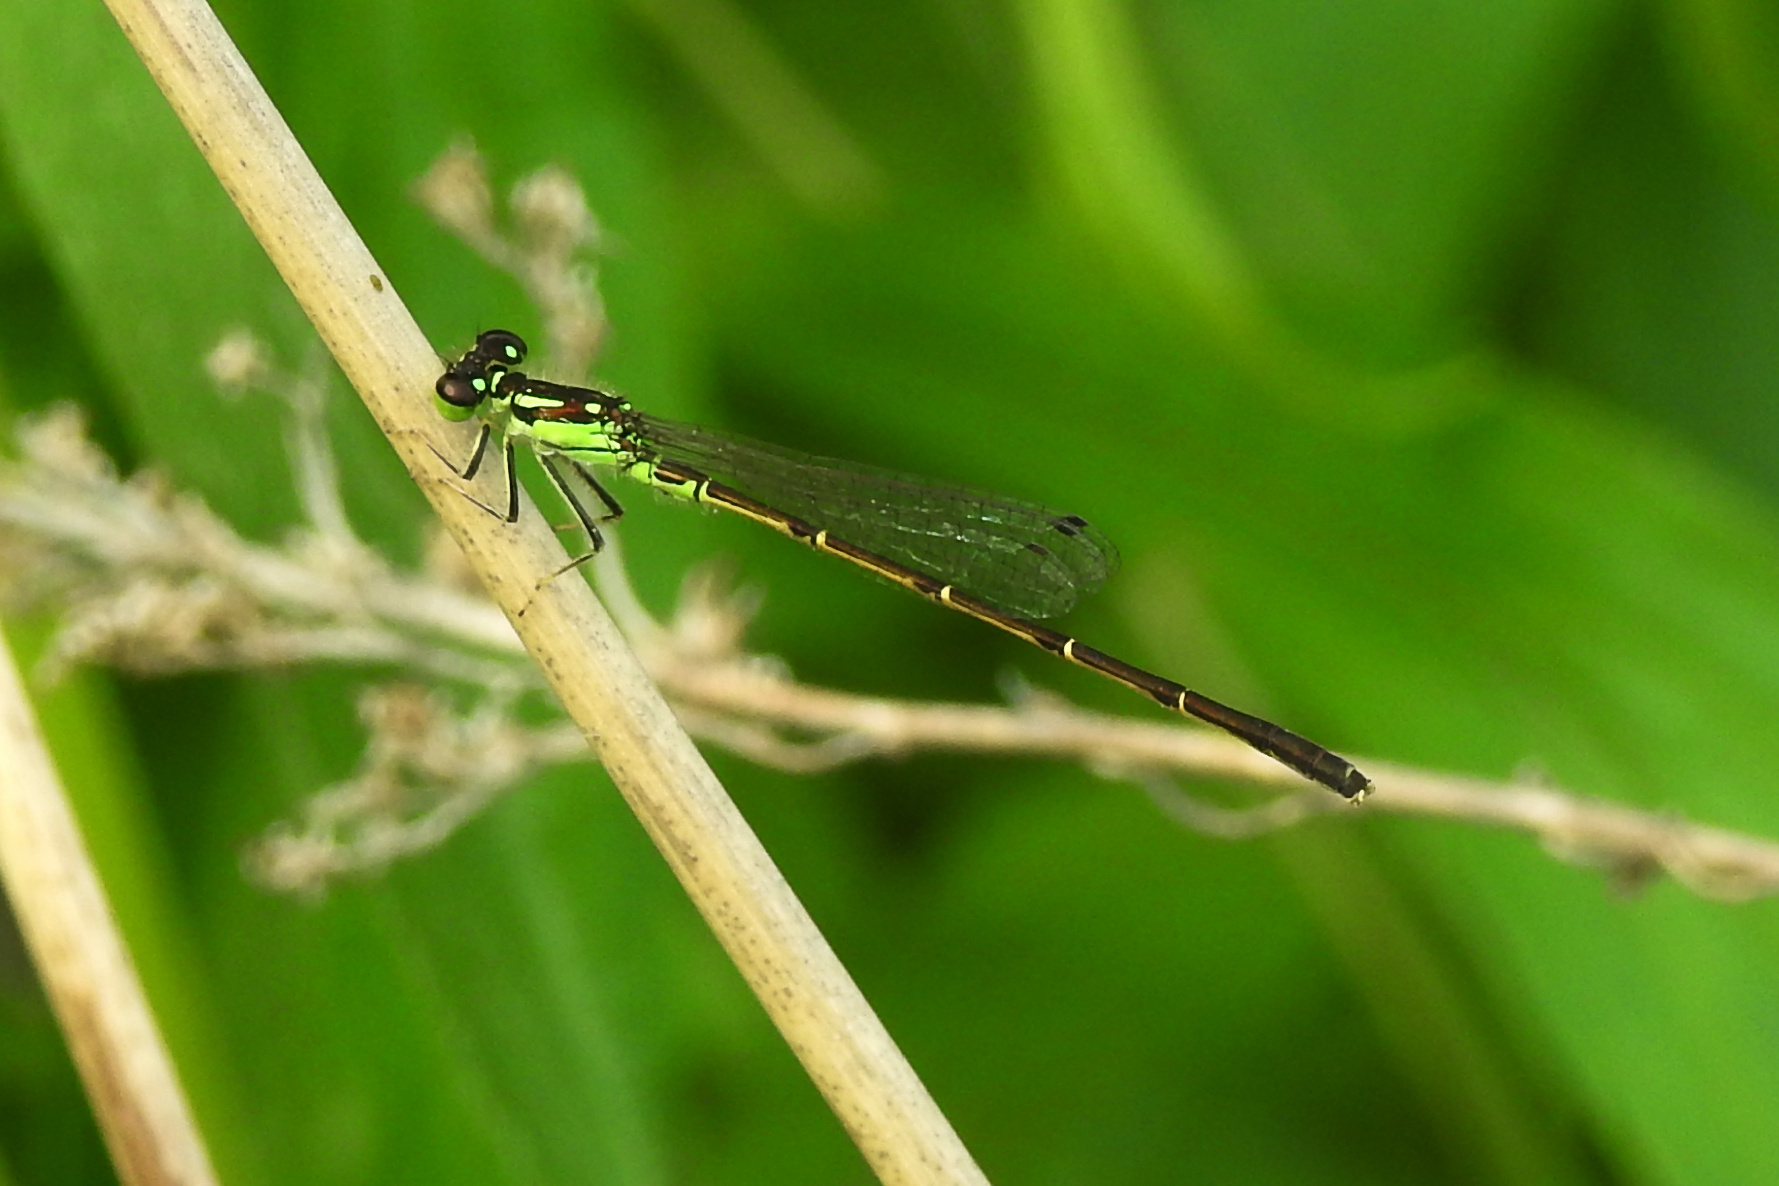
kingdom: Animalia
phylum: Arthropoda
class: Insecta
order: Odonata
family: Coenagrionidae
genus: Ischnura
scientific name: Ischnura posita
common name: Fragile forktail
